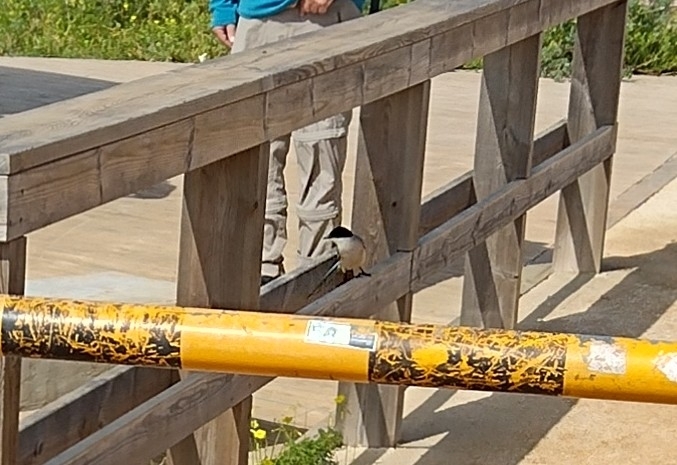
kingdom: Animalia
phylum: Chordata
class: Aves
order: Passeriformes
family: Corvidae
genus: Cyanopica
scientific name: Cyanopica cooki
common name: Iberian magpie
